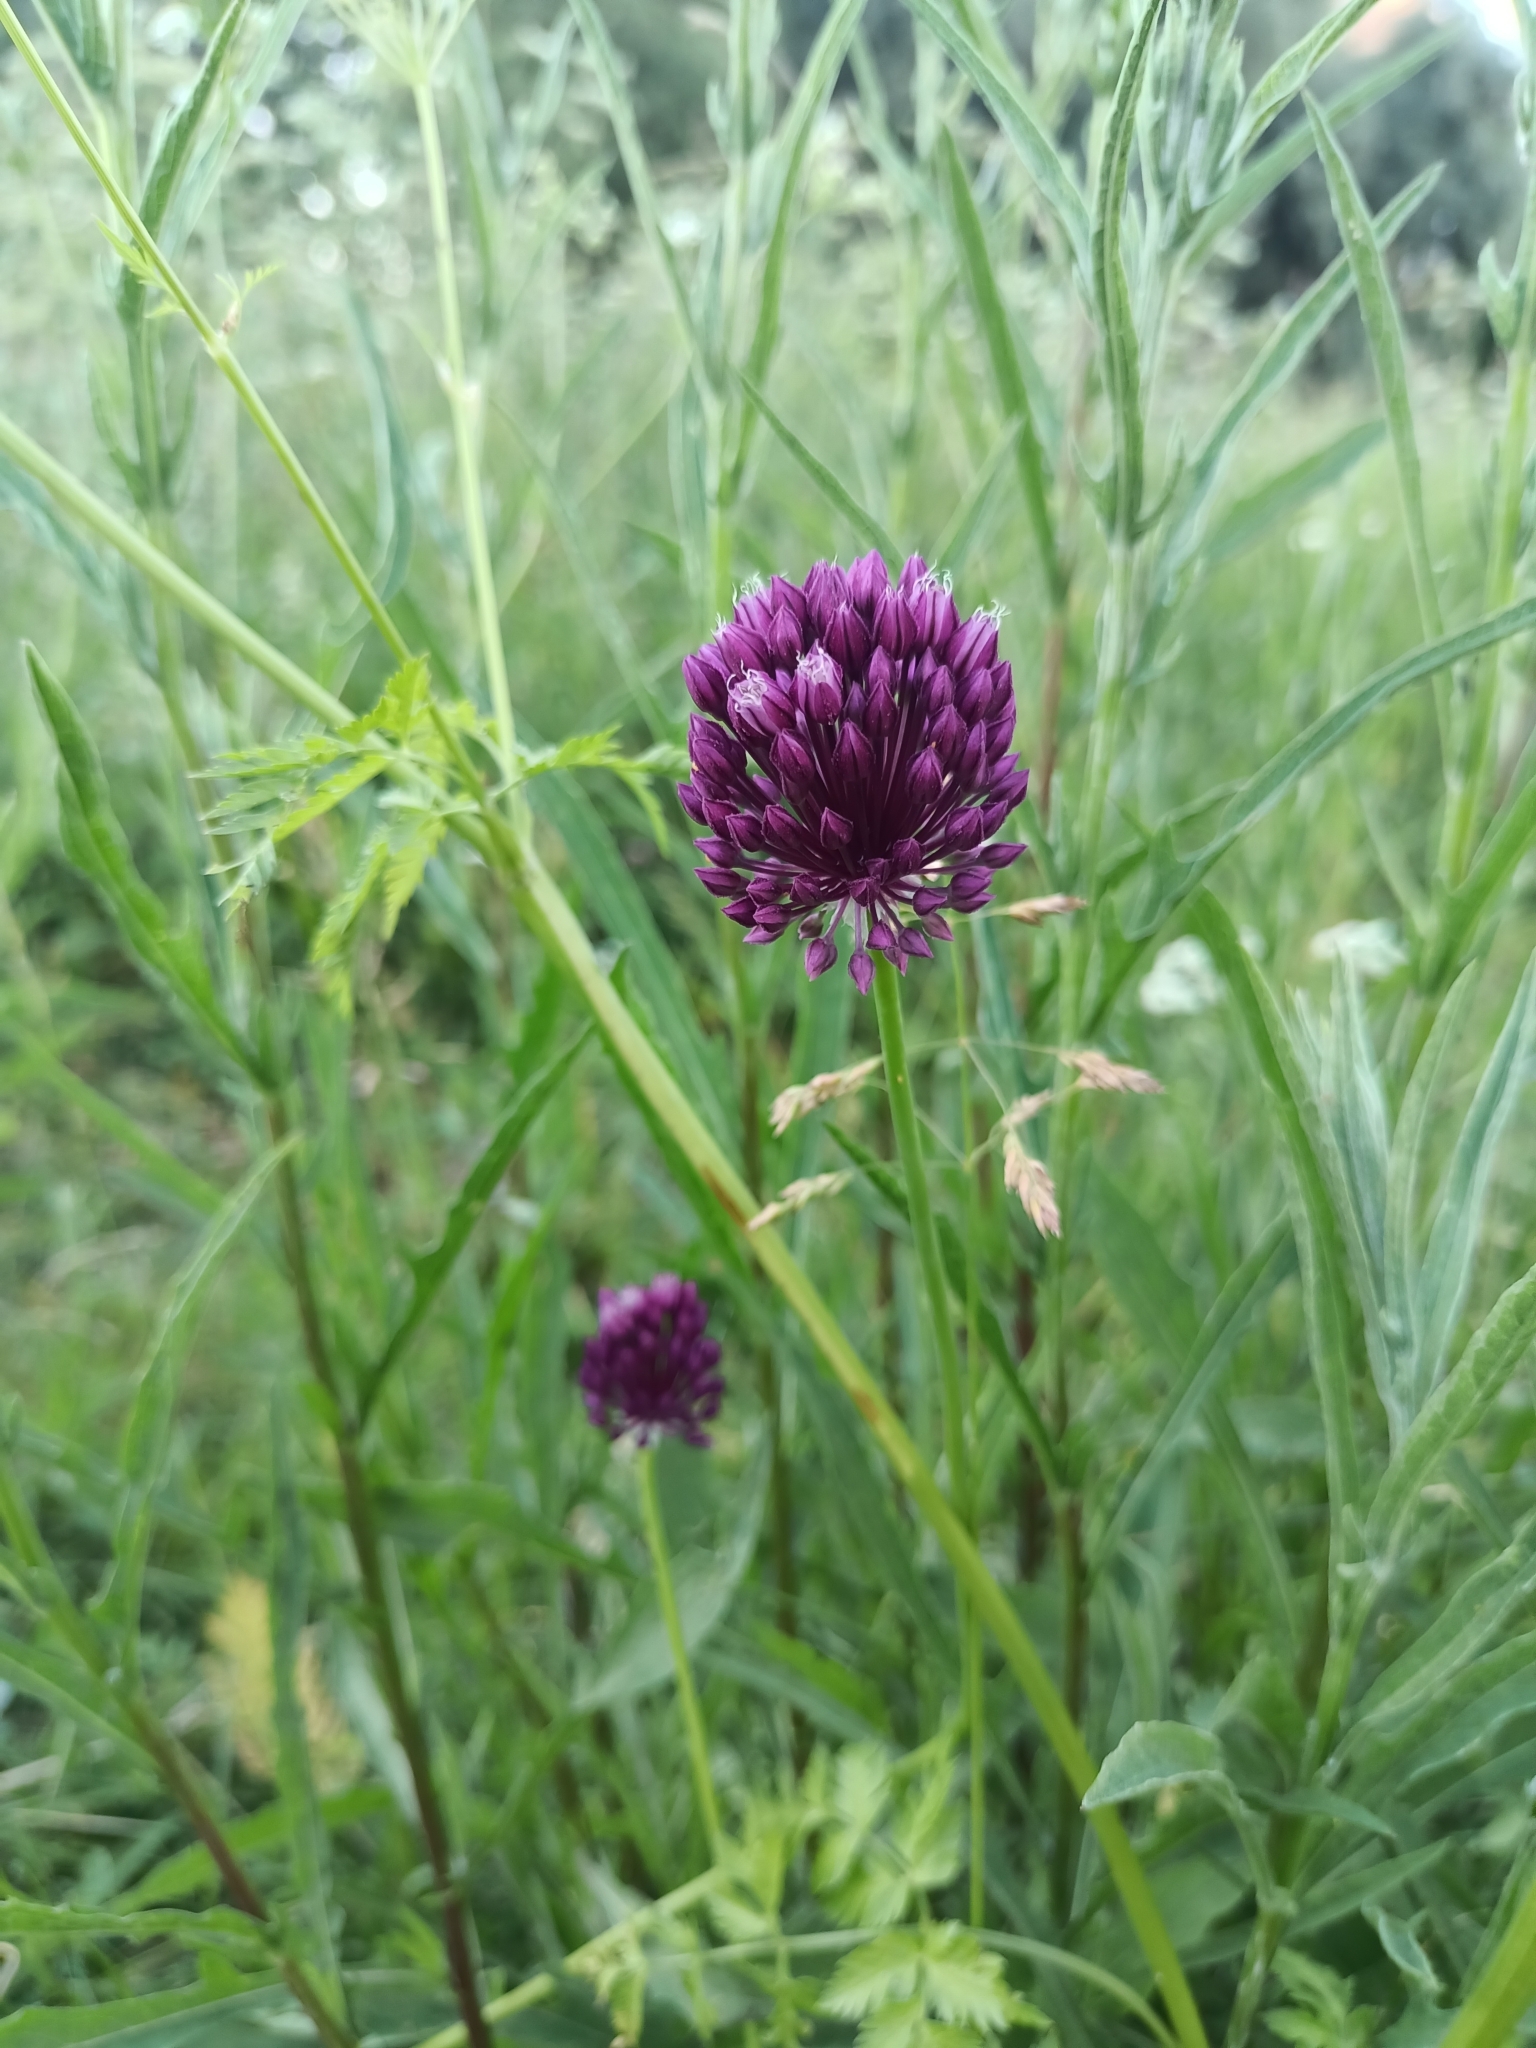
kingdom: Plantae
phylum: Tracheophyta
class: Liliopsida
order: Asparagales
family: Amaryllidaceae
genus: Allium
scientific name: Allium rotundum
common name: Sand leek
